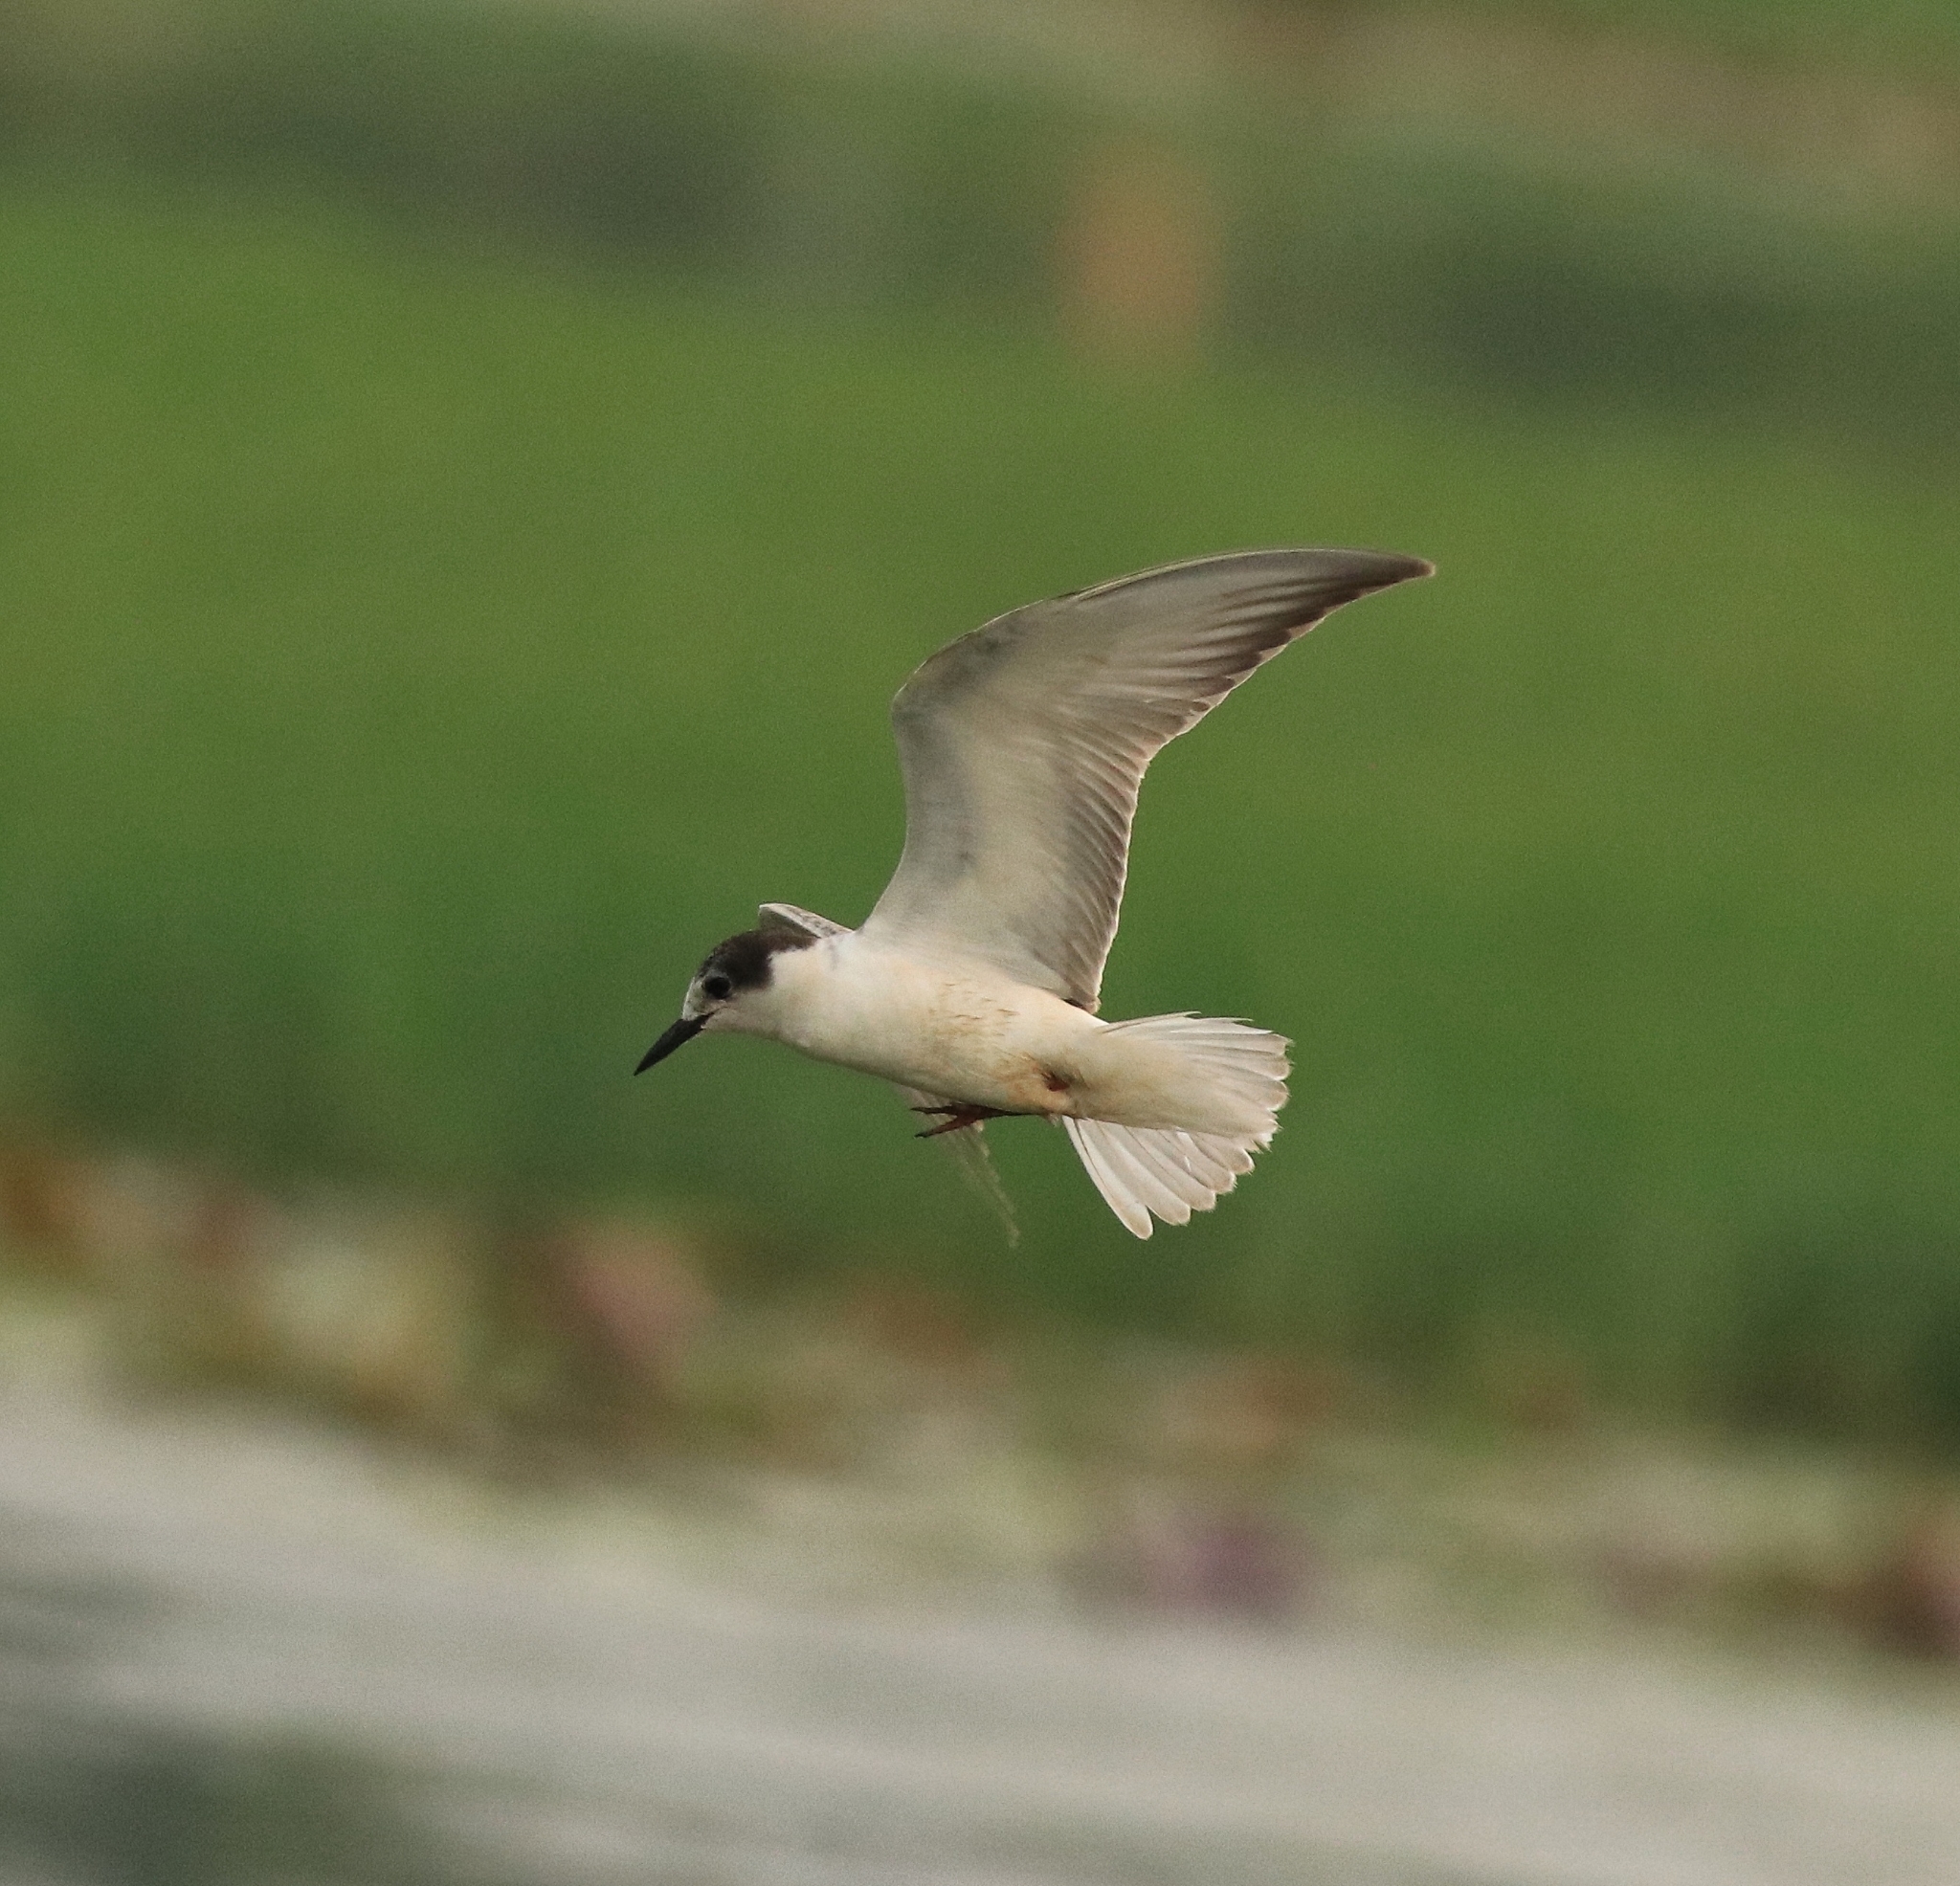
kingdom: Animalia
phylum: Chordata
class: Aves
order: Charadriiformes
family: Laridae
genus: Chlidonias
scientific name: Chlidonias hybrida
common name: Whiskered tern
